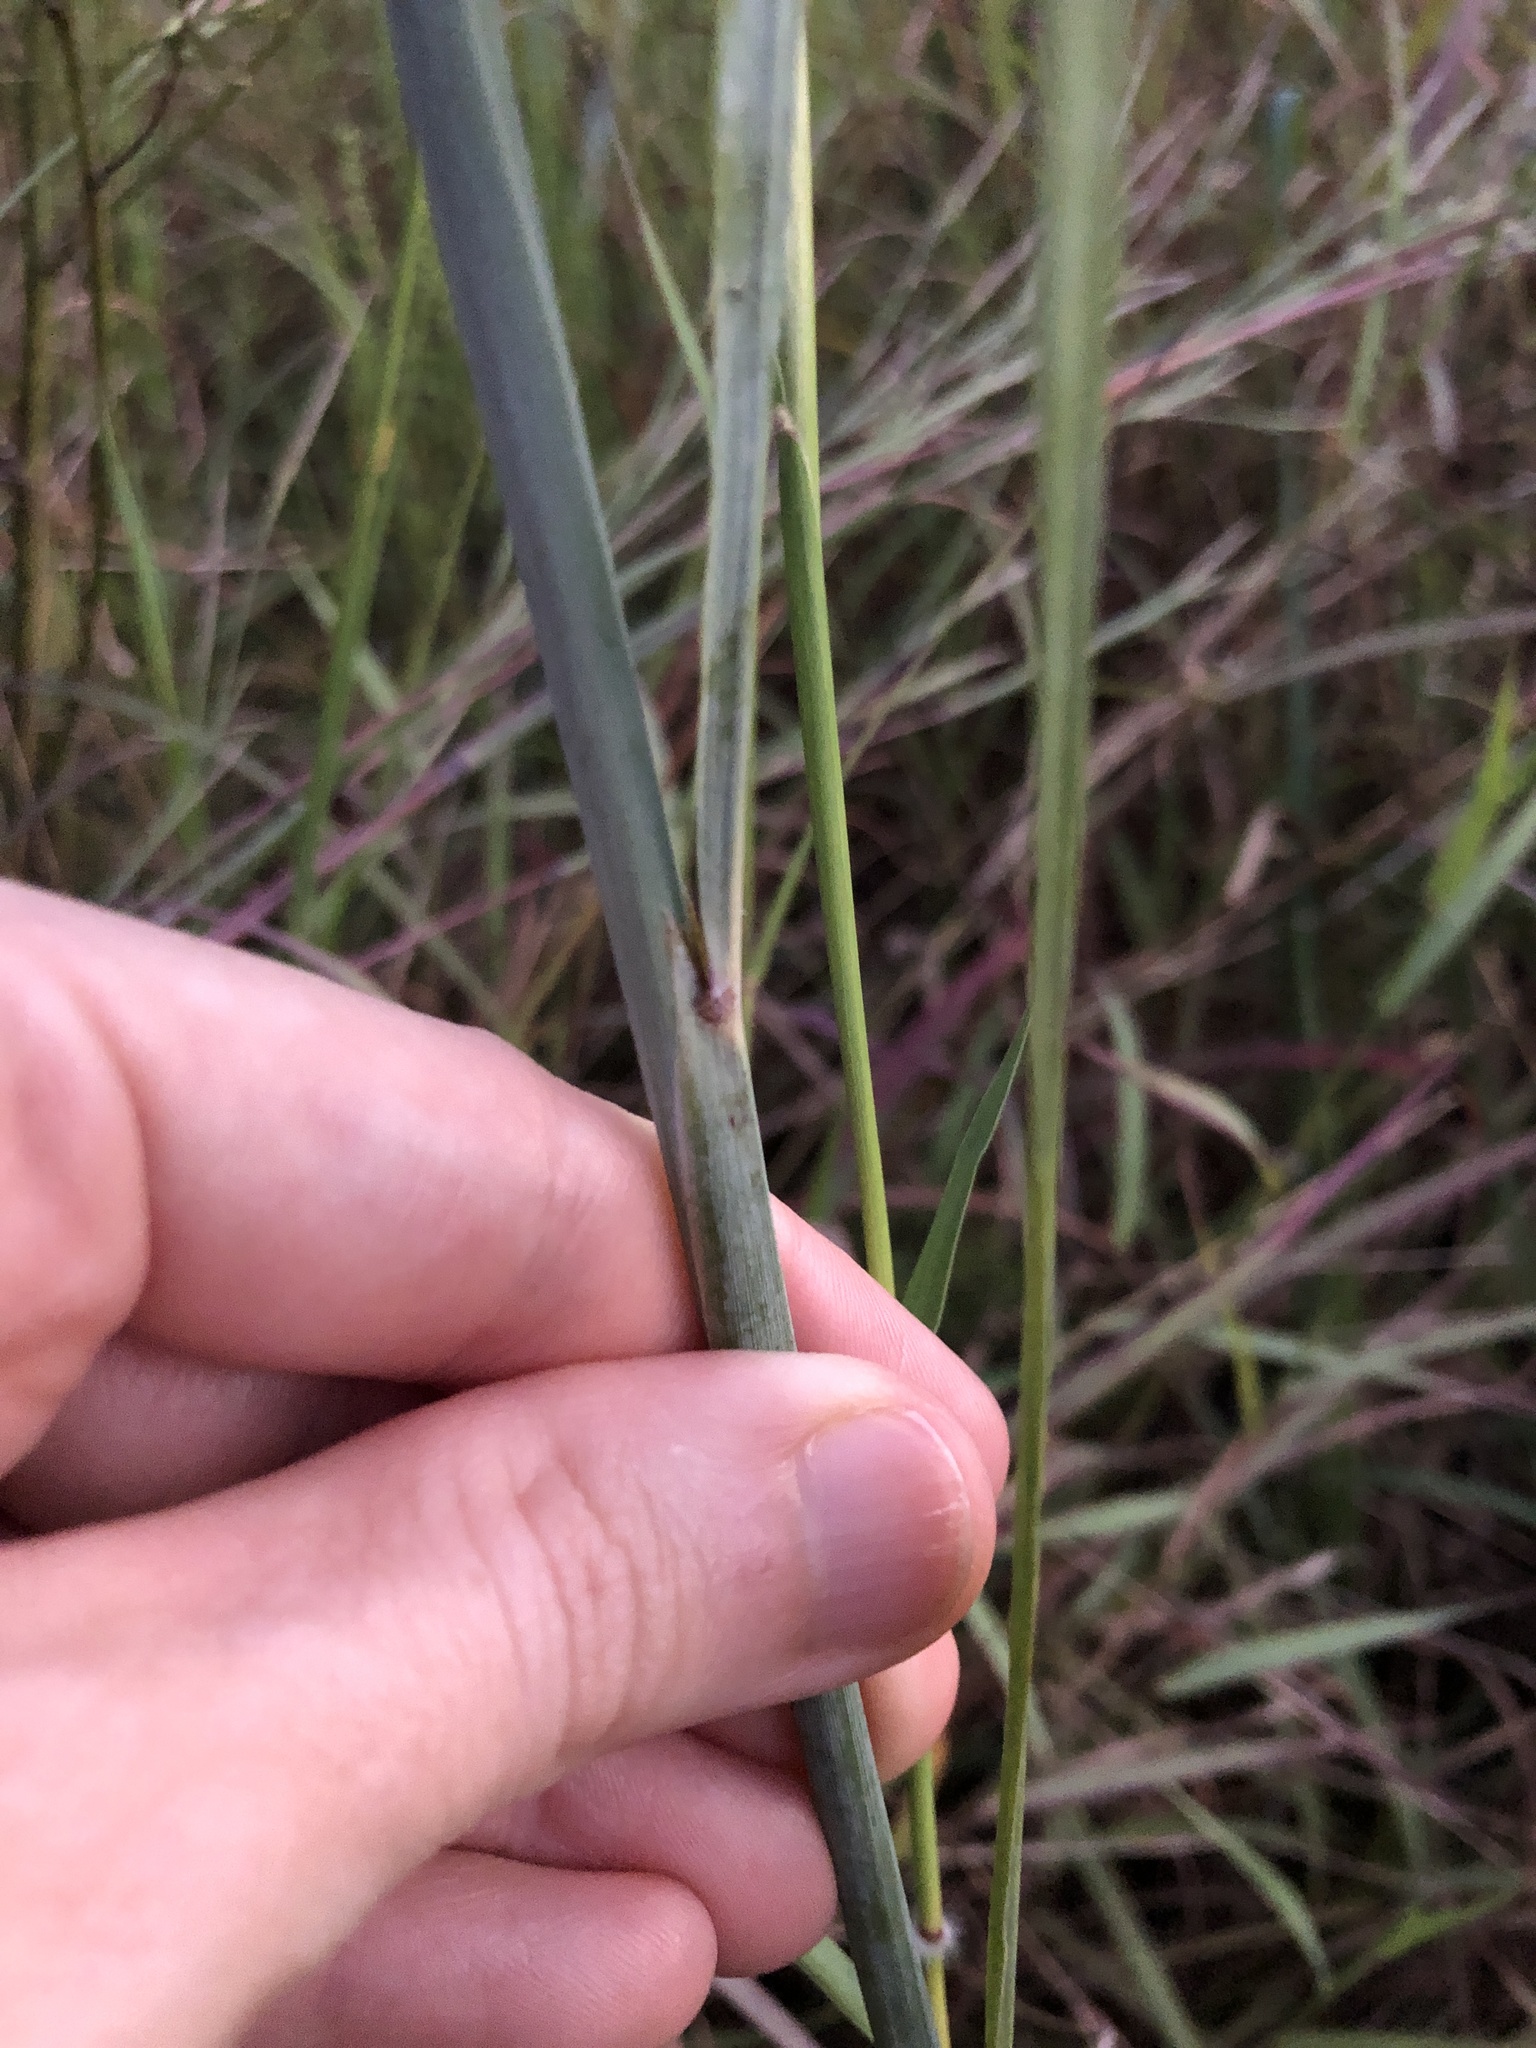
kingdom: Plantae
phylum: Tracheophyta
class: Liliopsida
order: Poales
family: Poaceae
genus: Sorghastrum
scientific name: Sorghastrum nutans
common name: Indian grass
